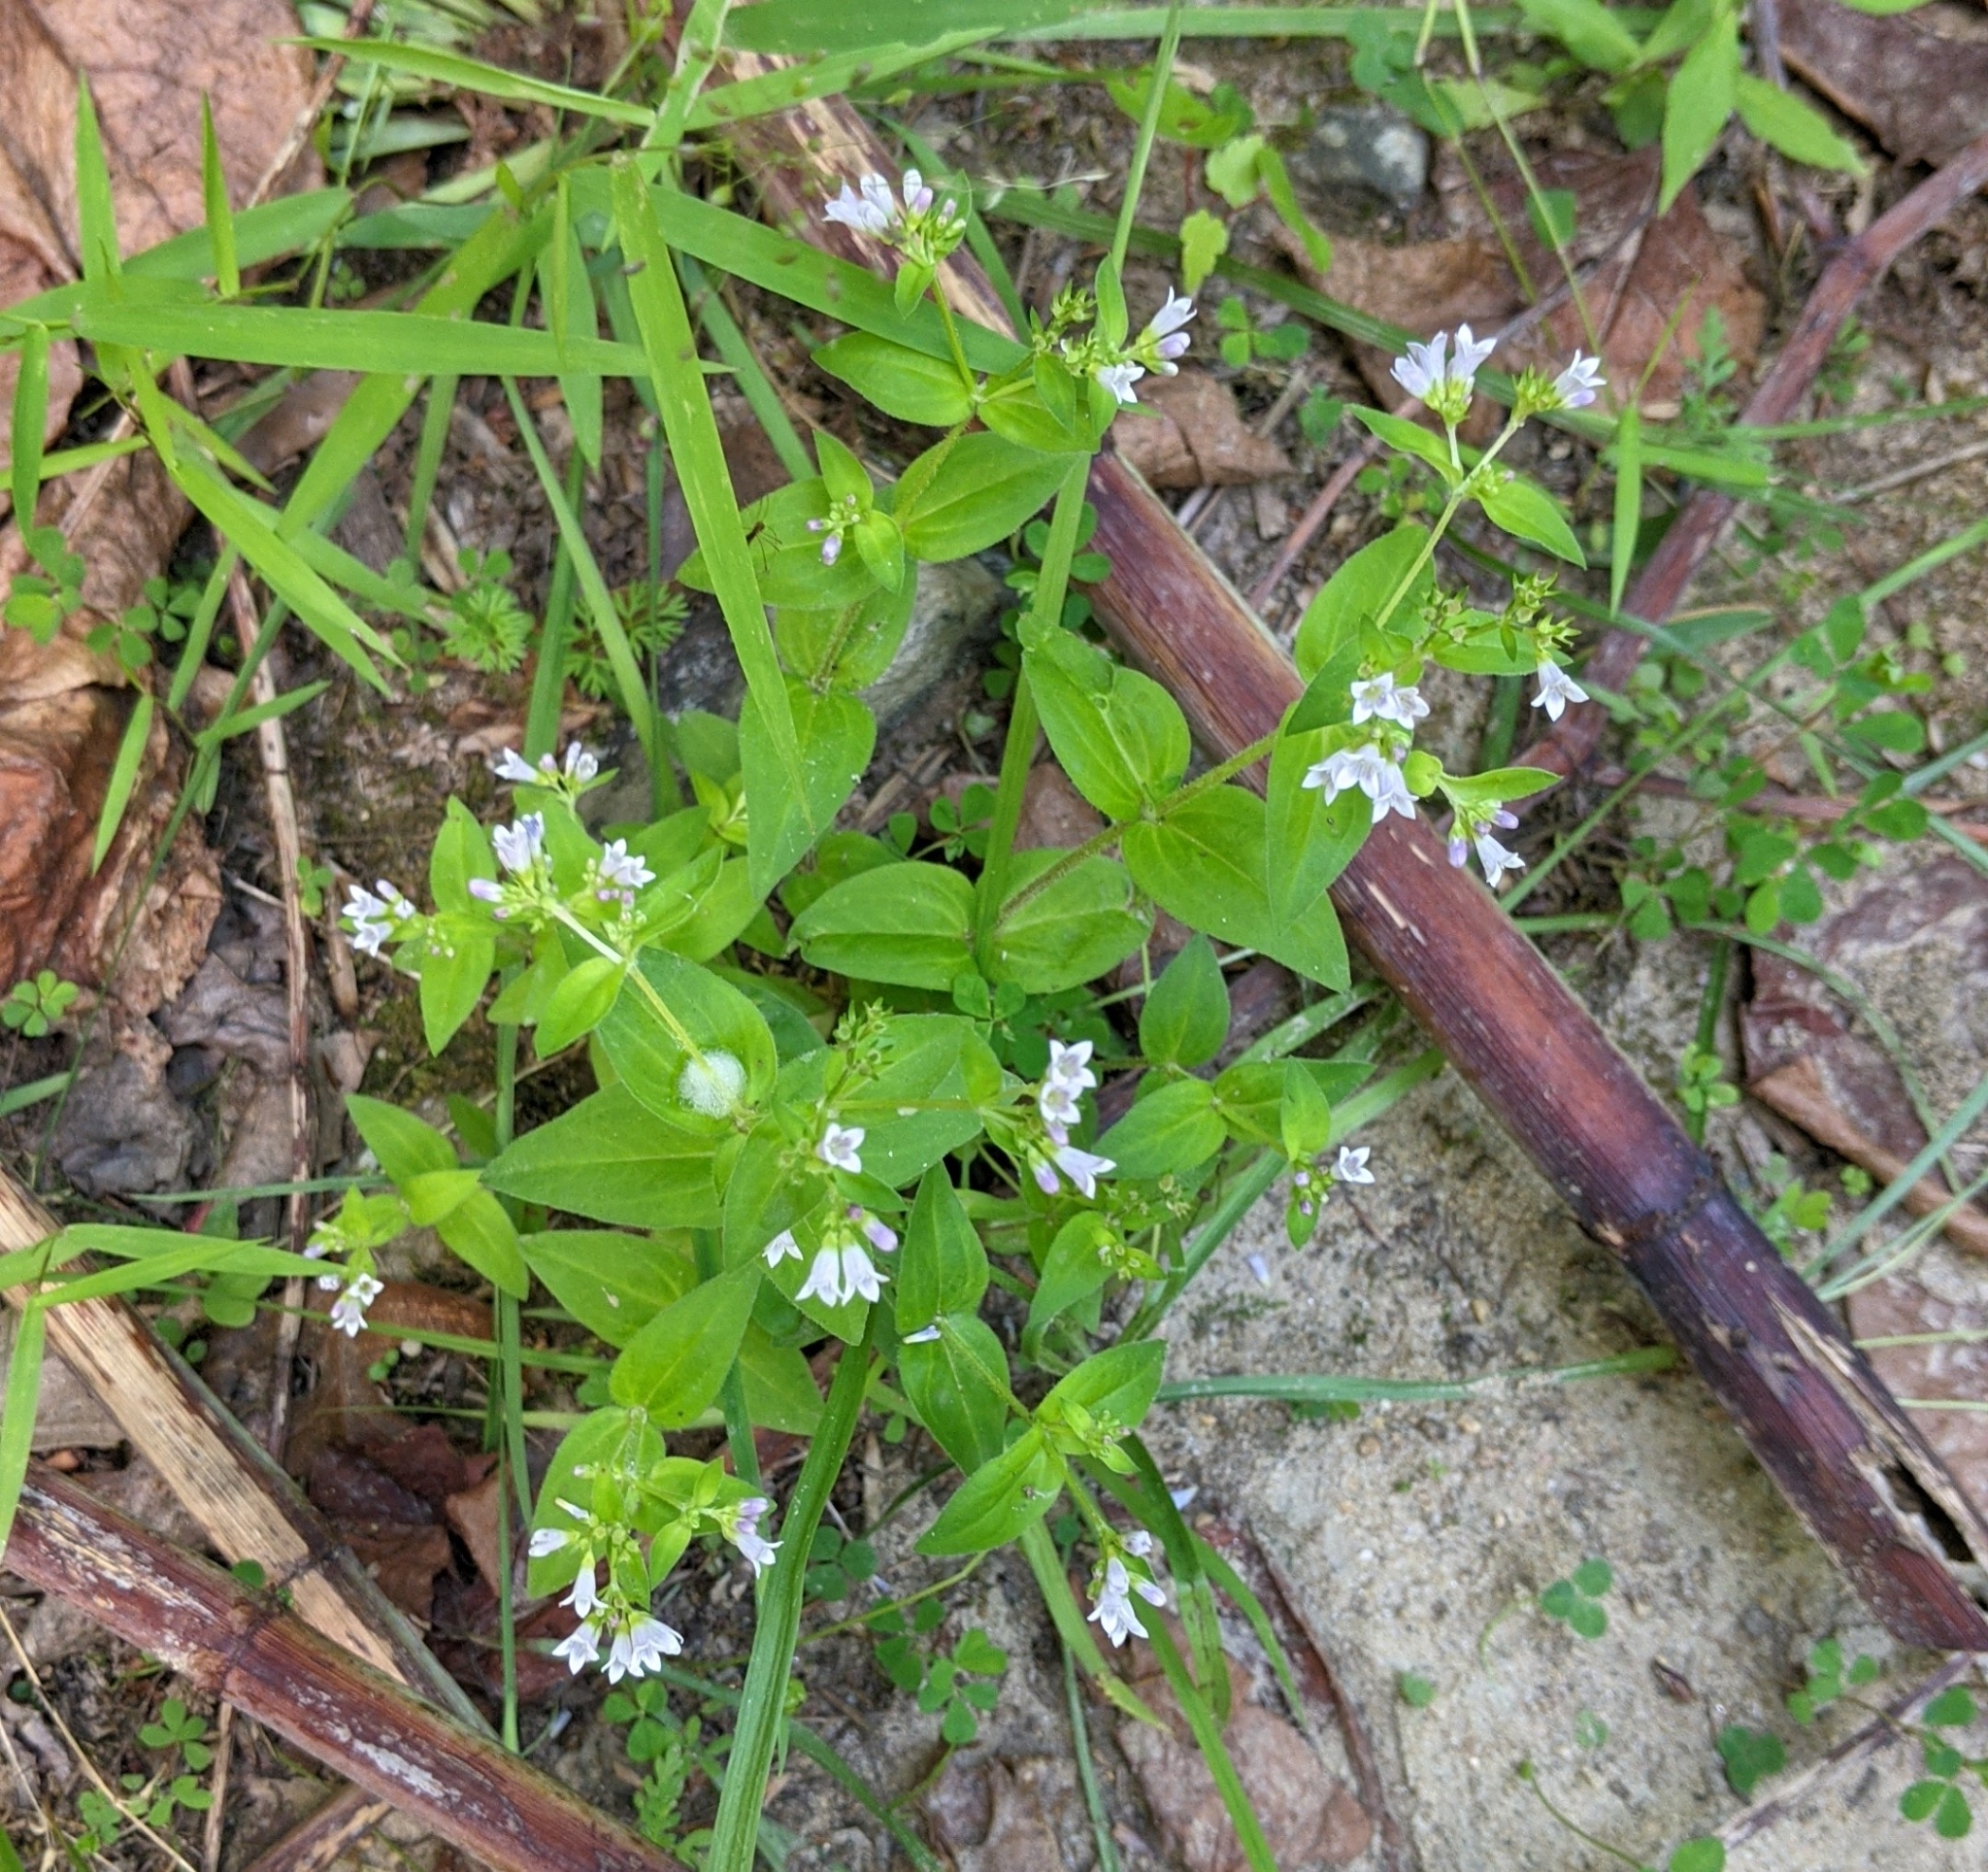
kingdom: Plantae
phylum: Tracheophyta
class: Magnoliopsida
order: Gentianales
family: Rubiaceae
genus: Houstonia
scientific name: Houstonia purpurea
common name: Summer bluet
